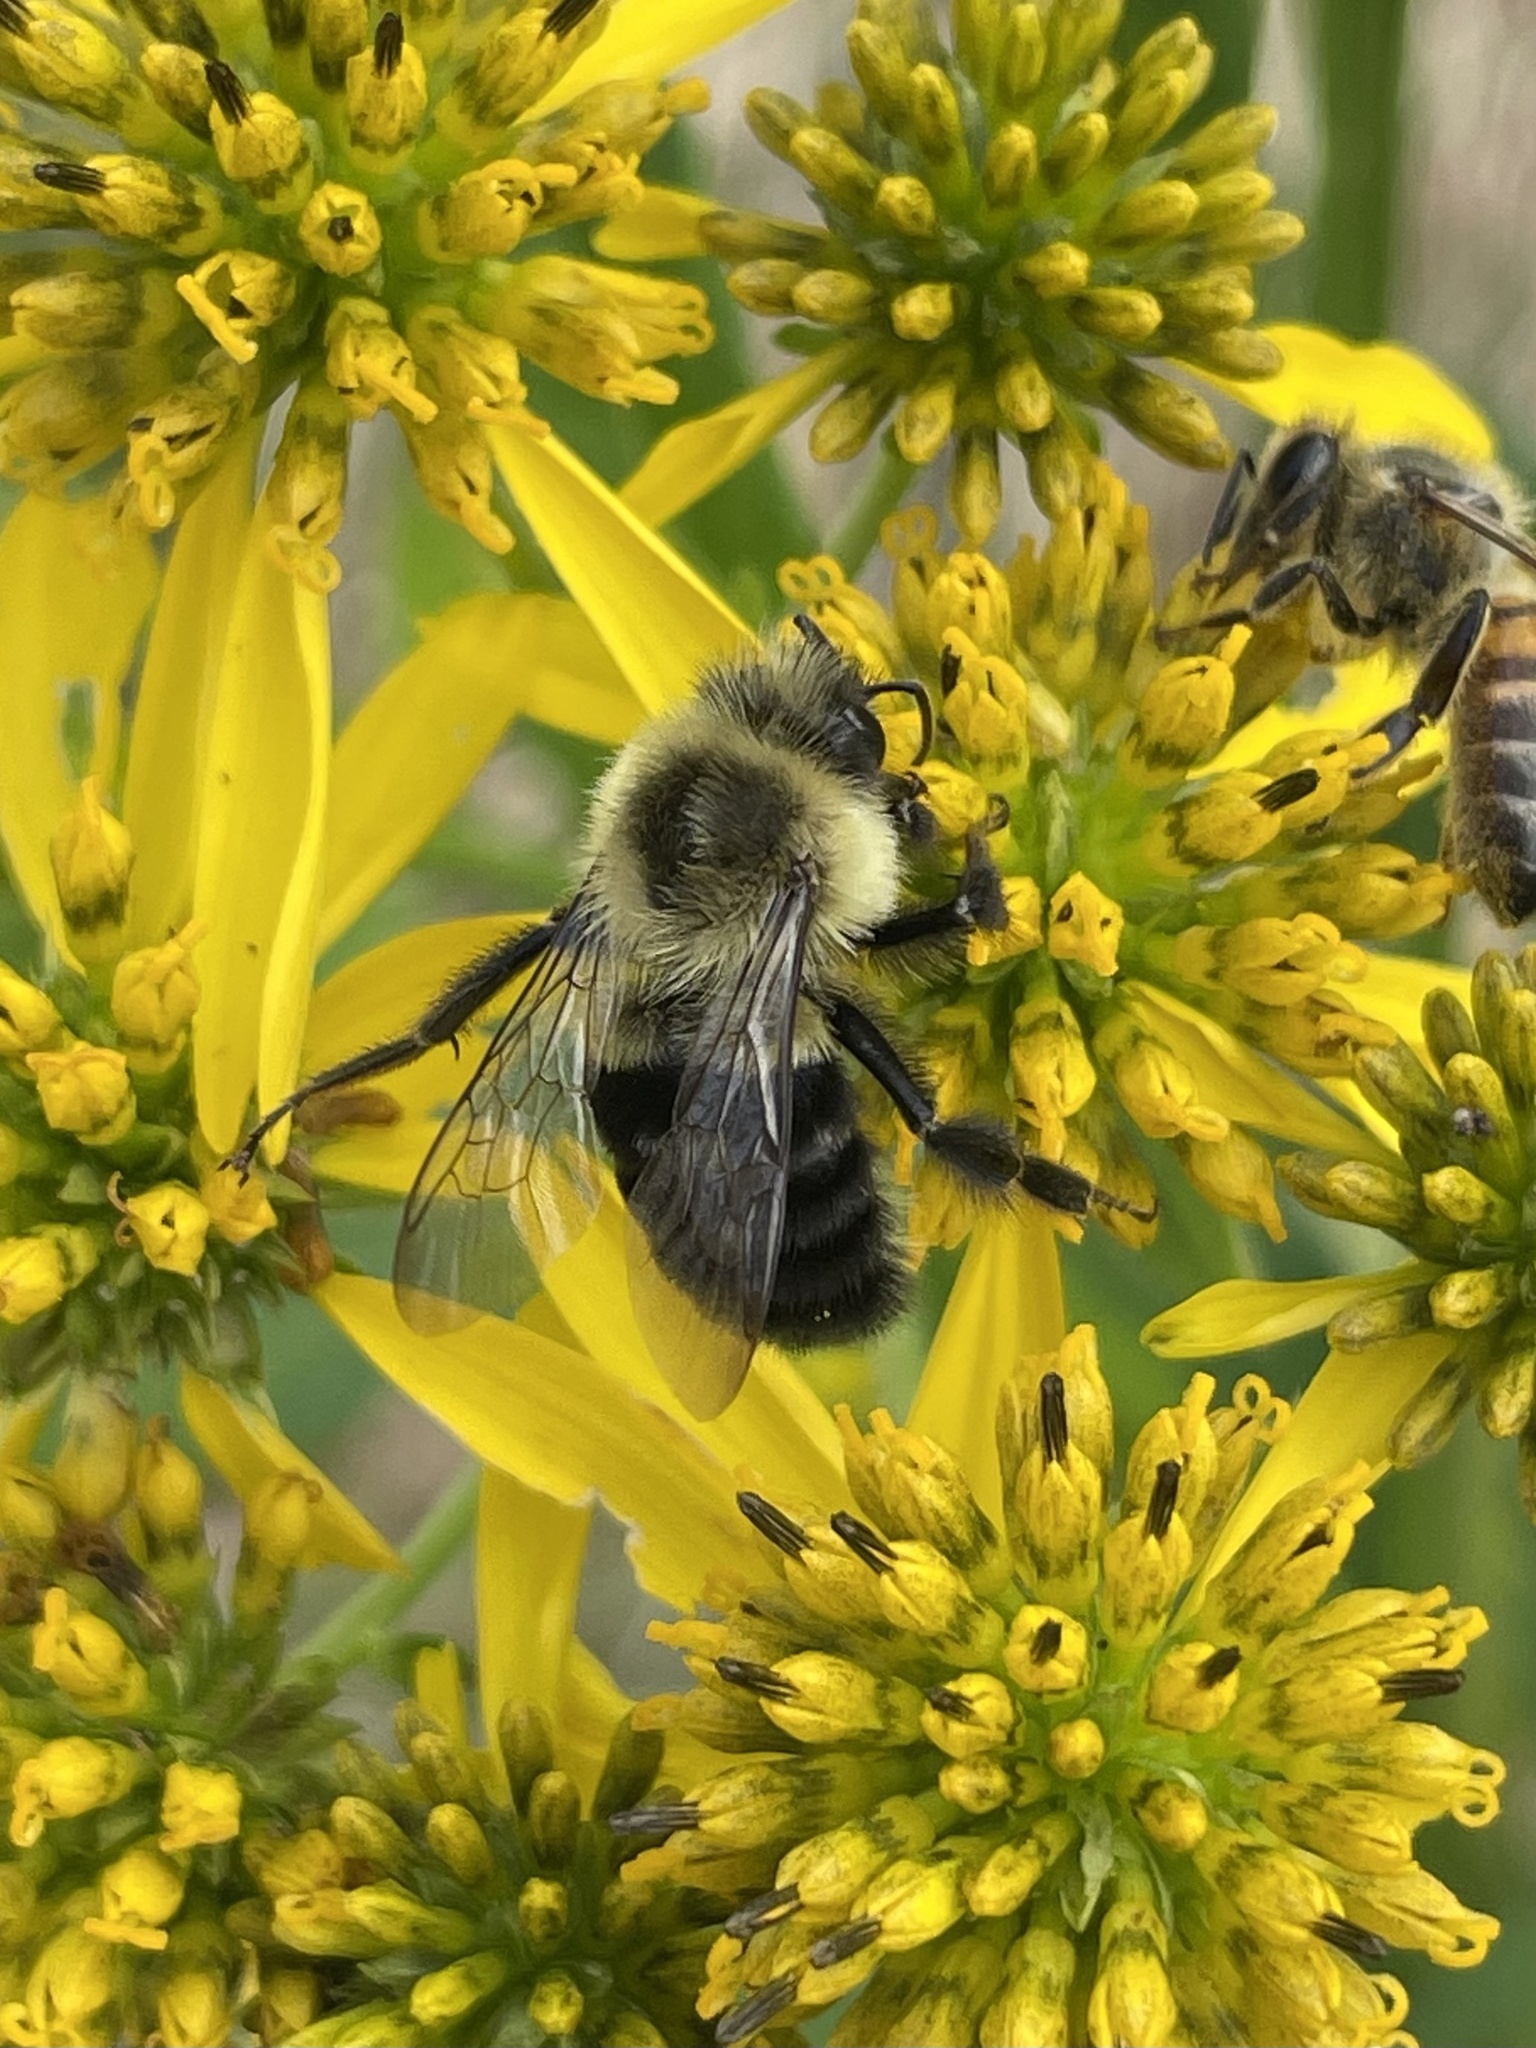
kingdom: Animalia
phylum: Arthropoda
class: Insecta
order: Hymenoptera
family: Apidae
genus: Bombus
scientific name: Bombus impatiens
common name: Common eastern bumble bee
